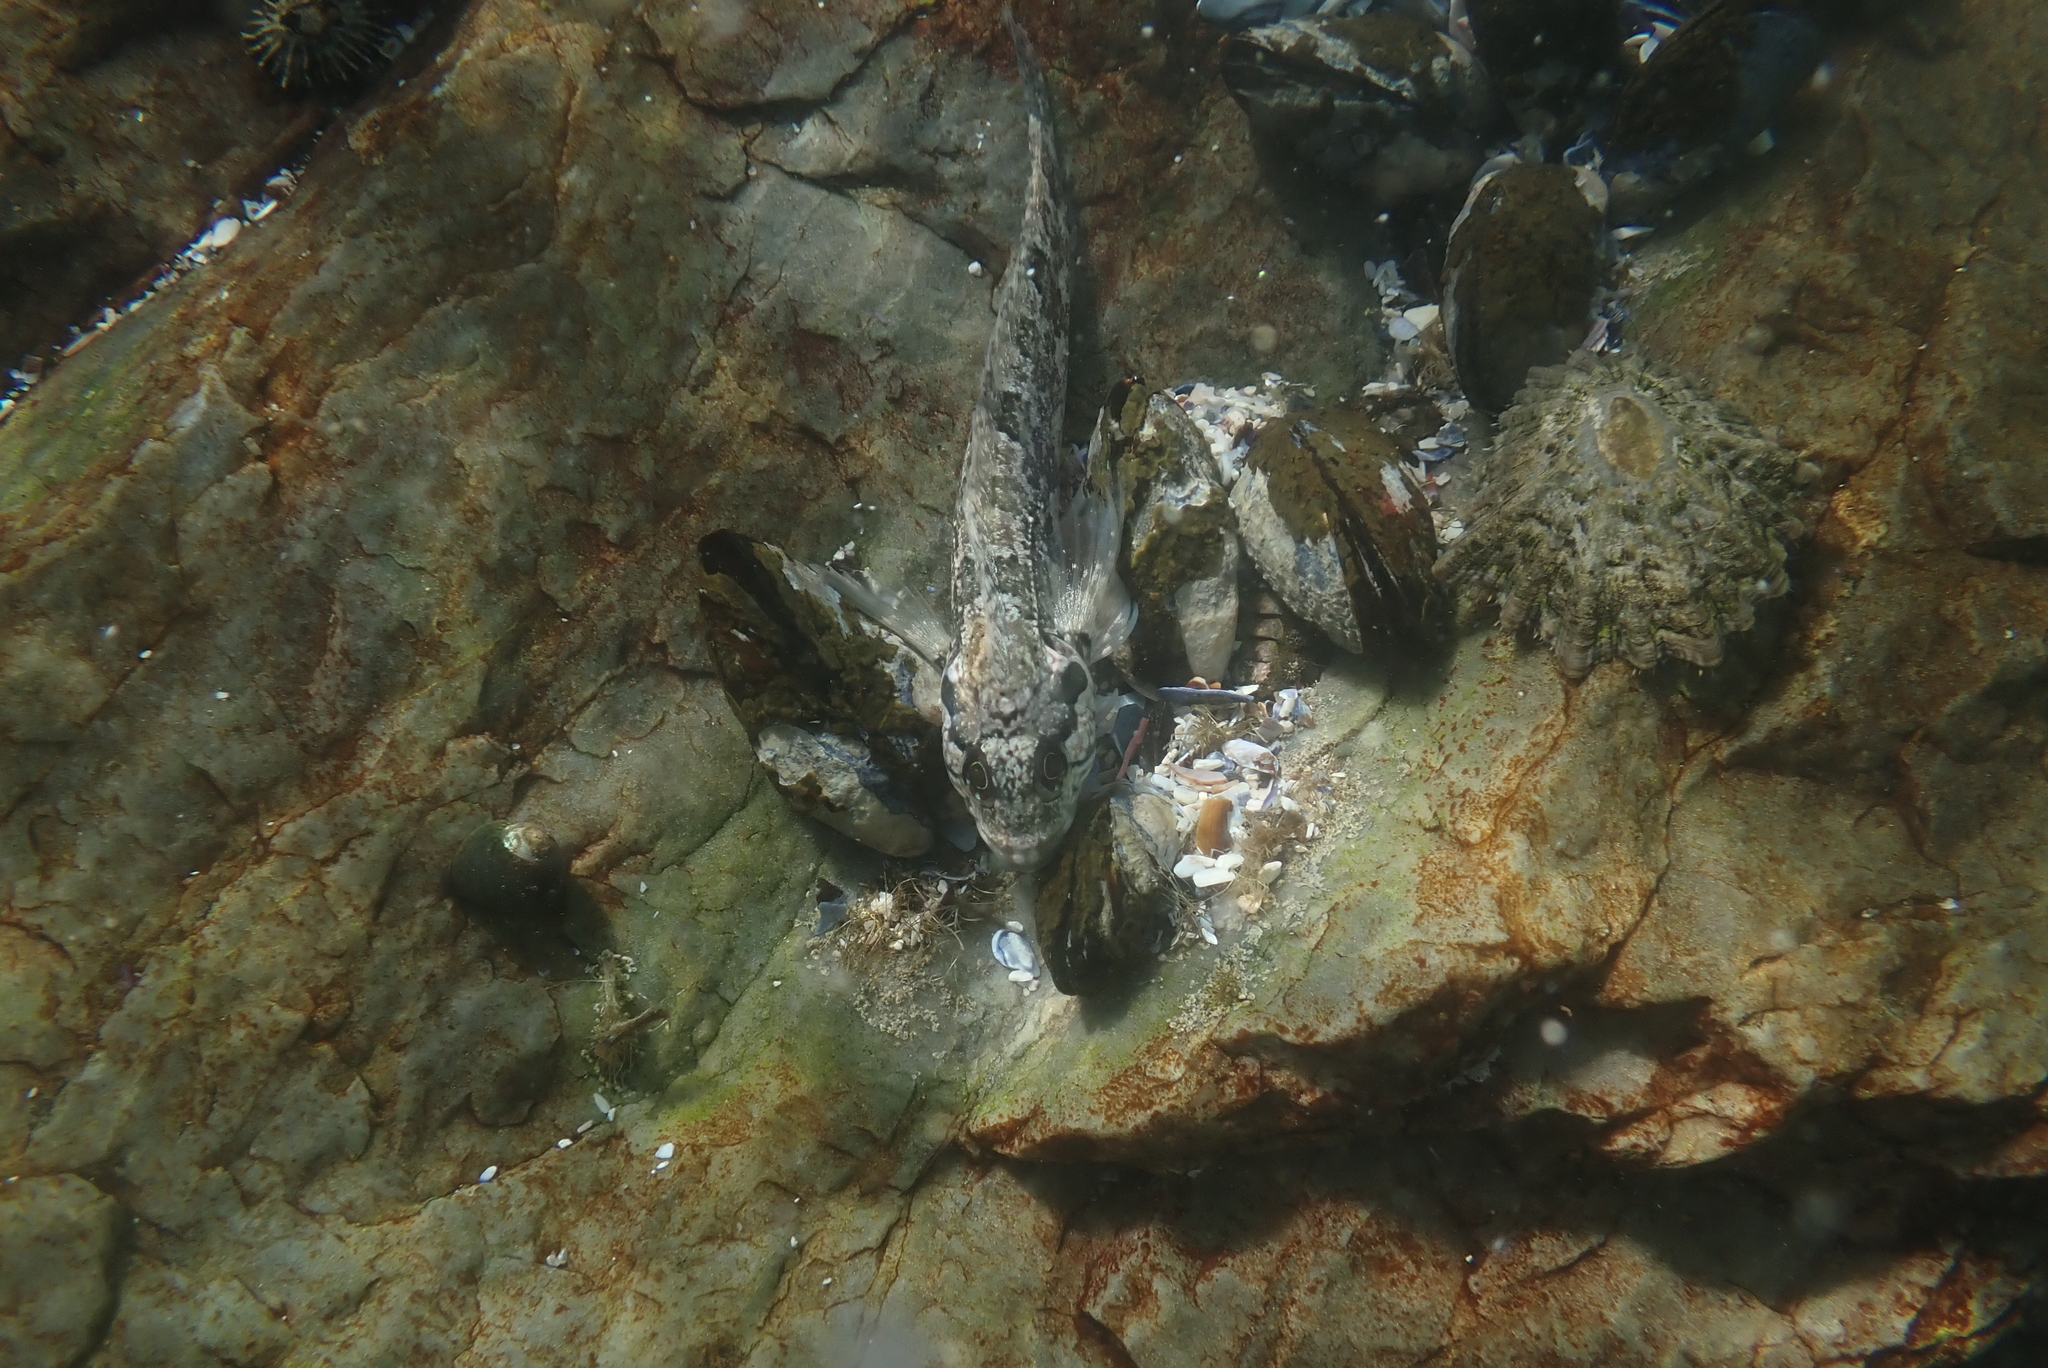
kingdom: Animalia
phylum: Chordata
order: Perciformes
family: Clinidae
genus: Clinus
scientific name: Clinus cottoides
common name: Bluntnose klipfish
